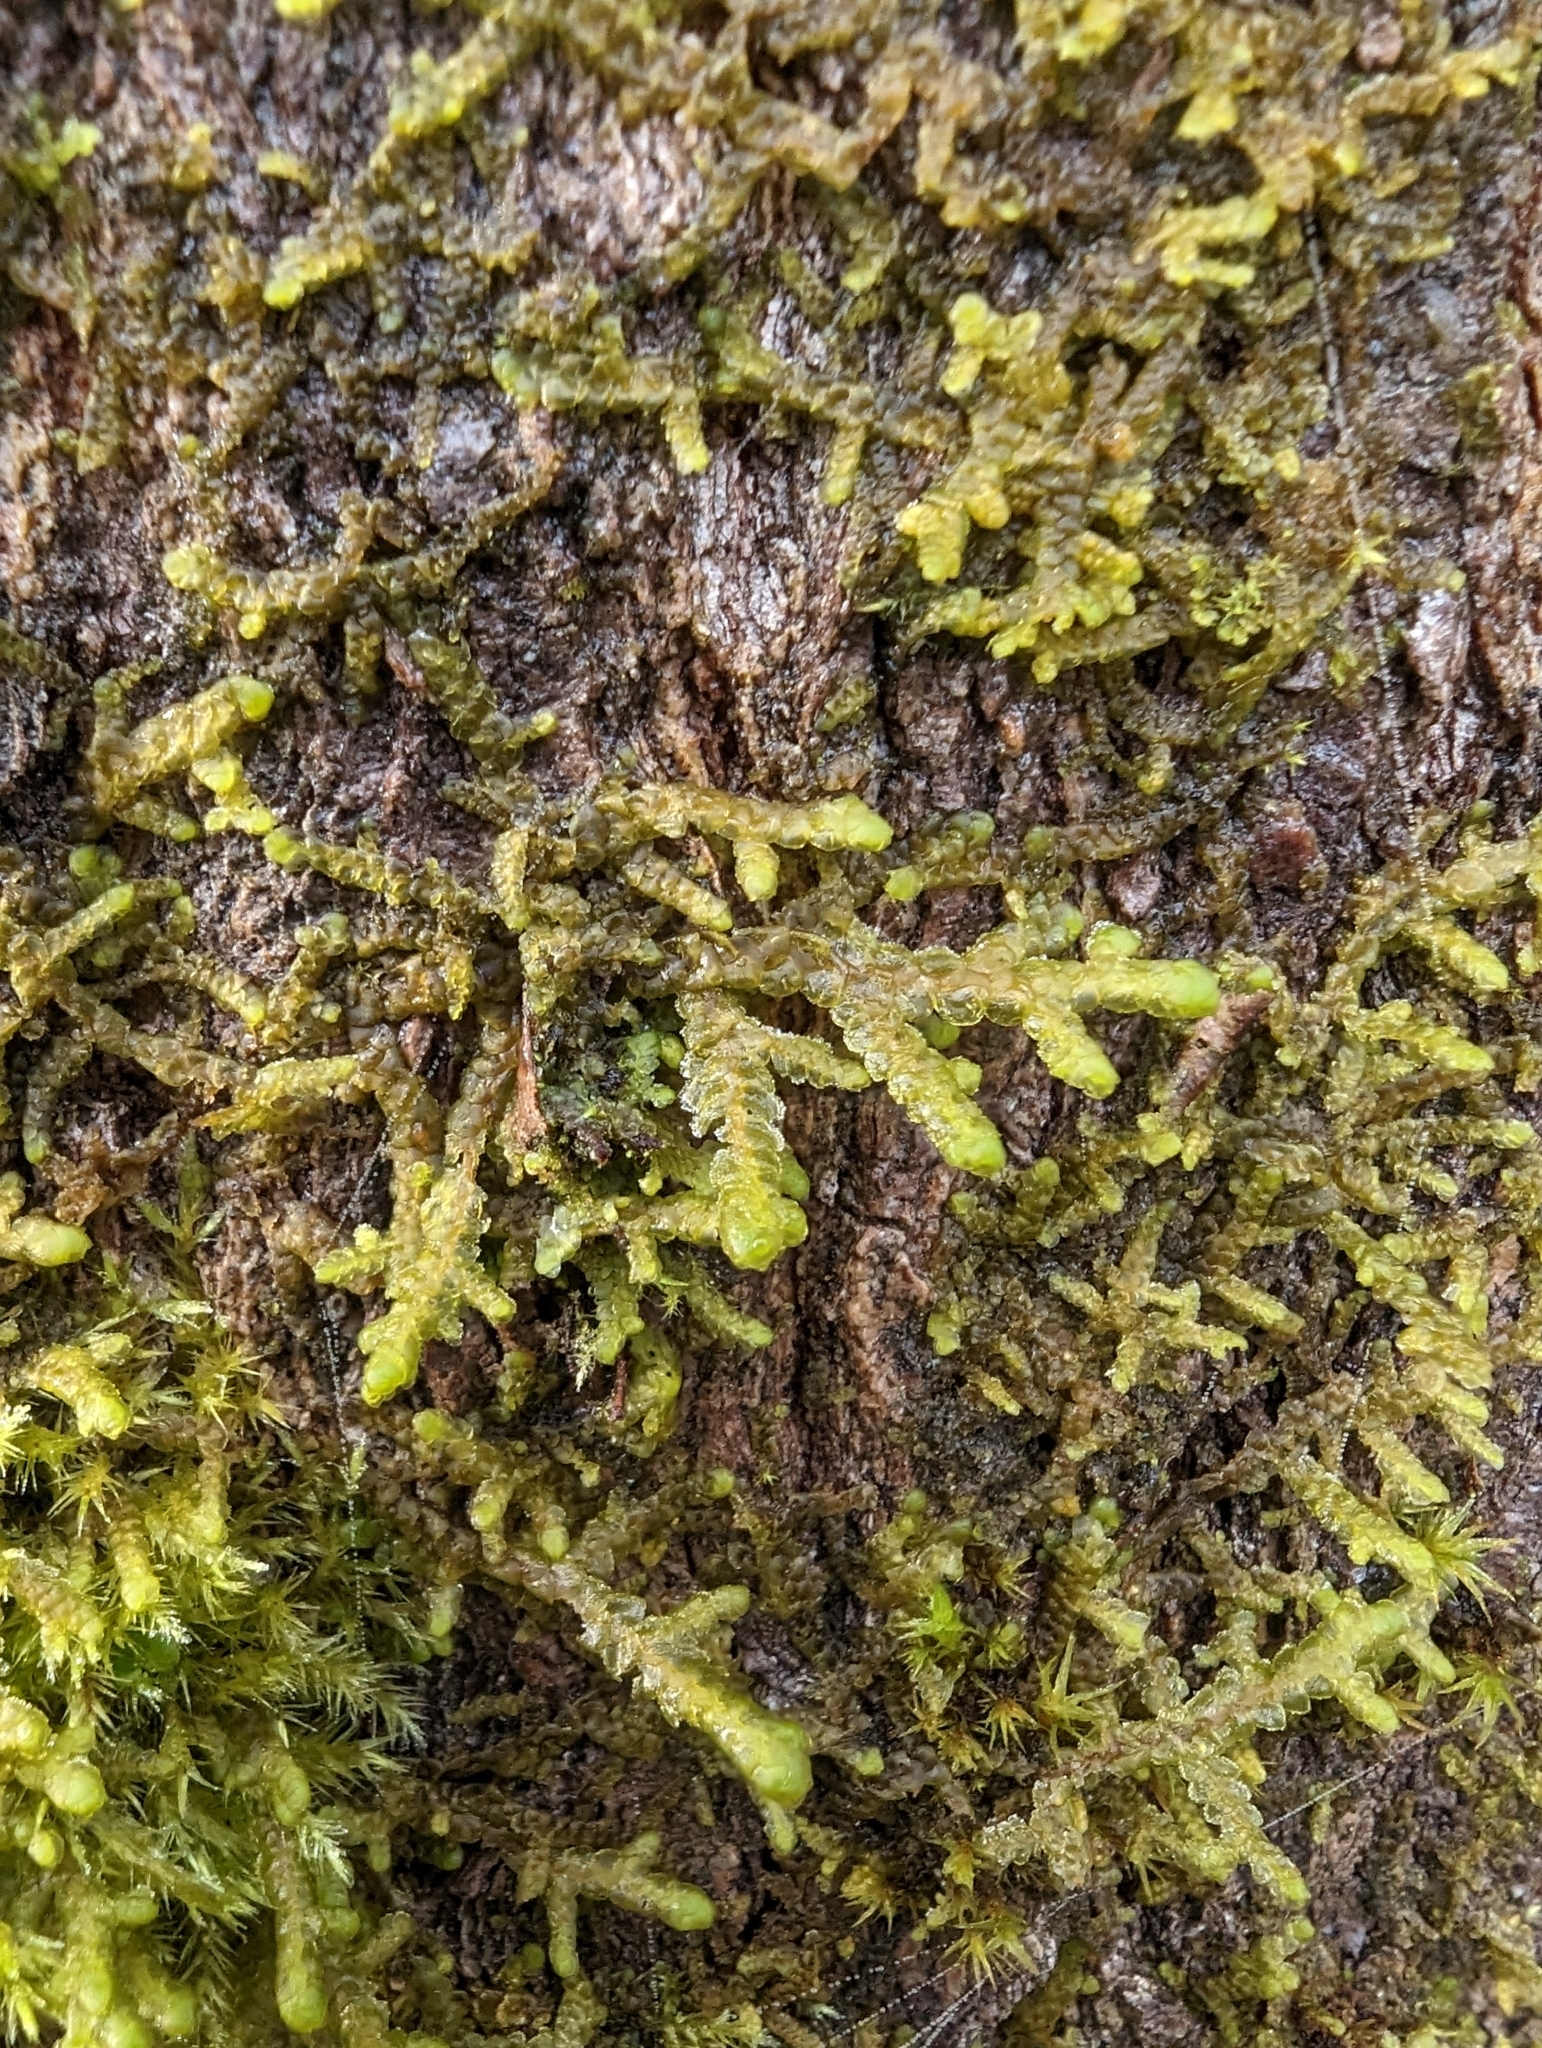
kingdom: Plantae
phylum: Marchantiophyta
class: Jungermanniopsida
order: Porellales
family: Porellaceae
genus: Porella
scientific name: Porella navicularis
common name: Tree ruffle liverwort
